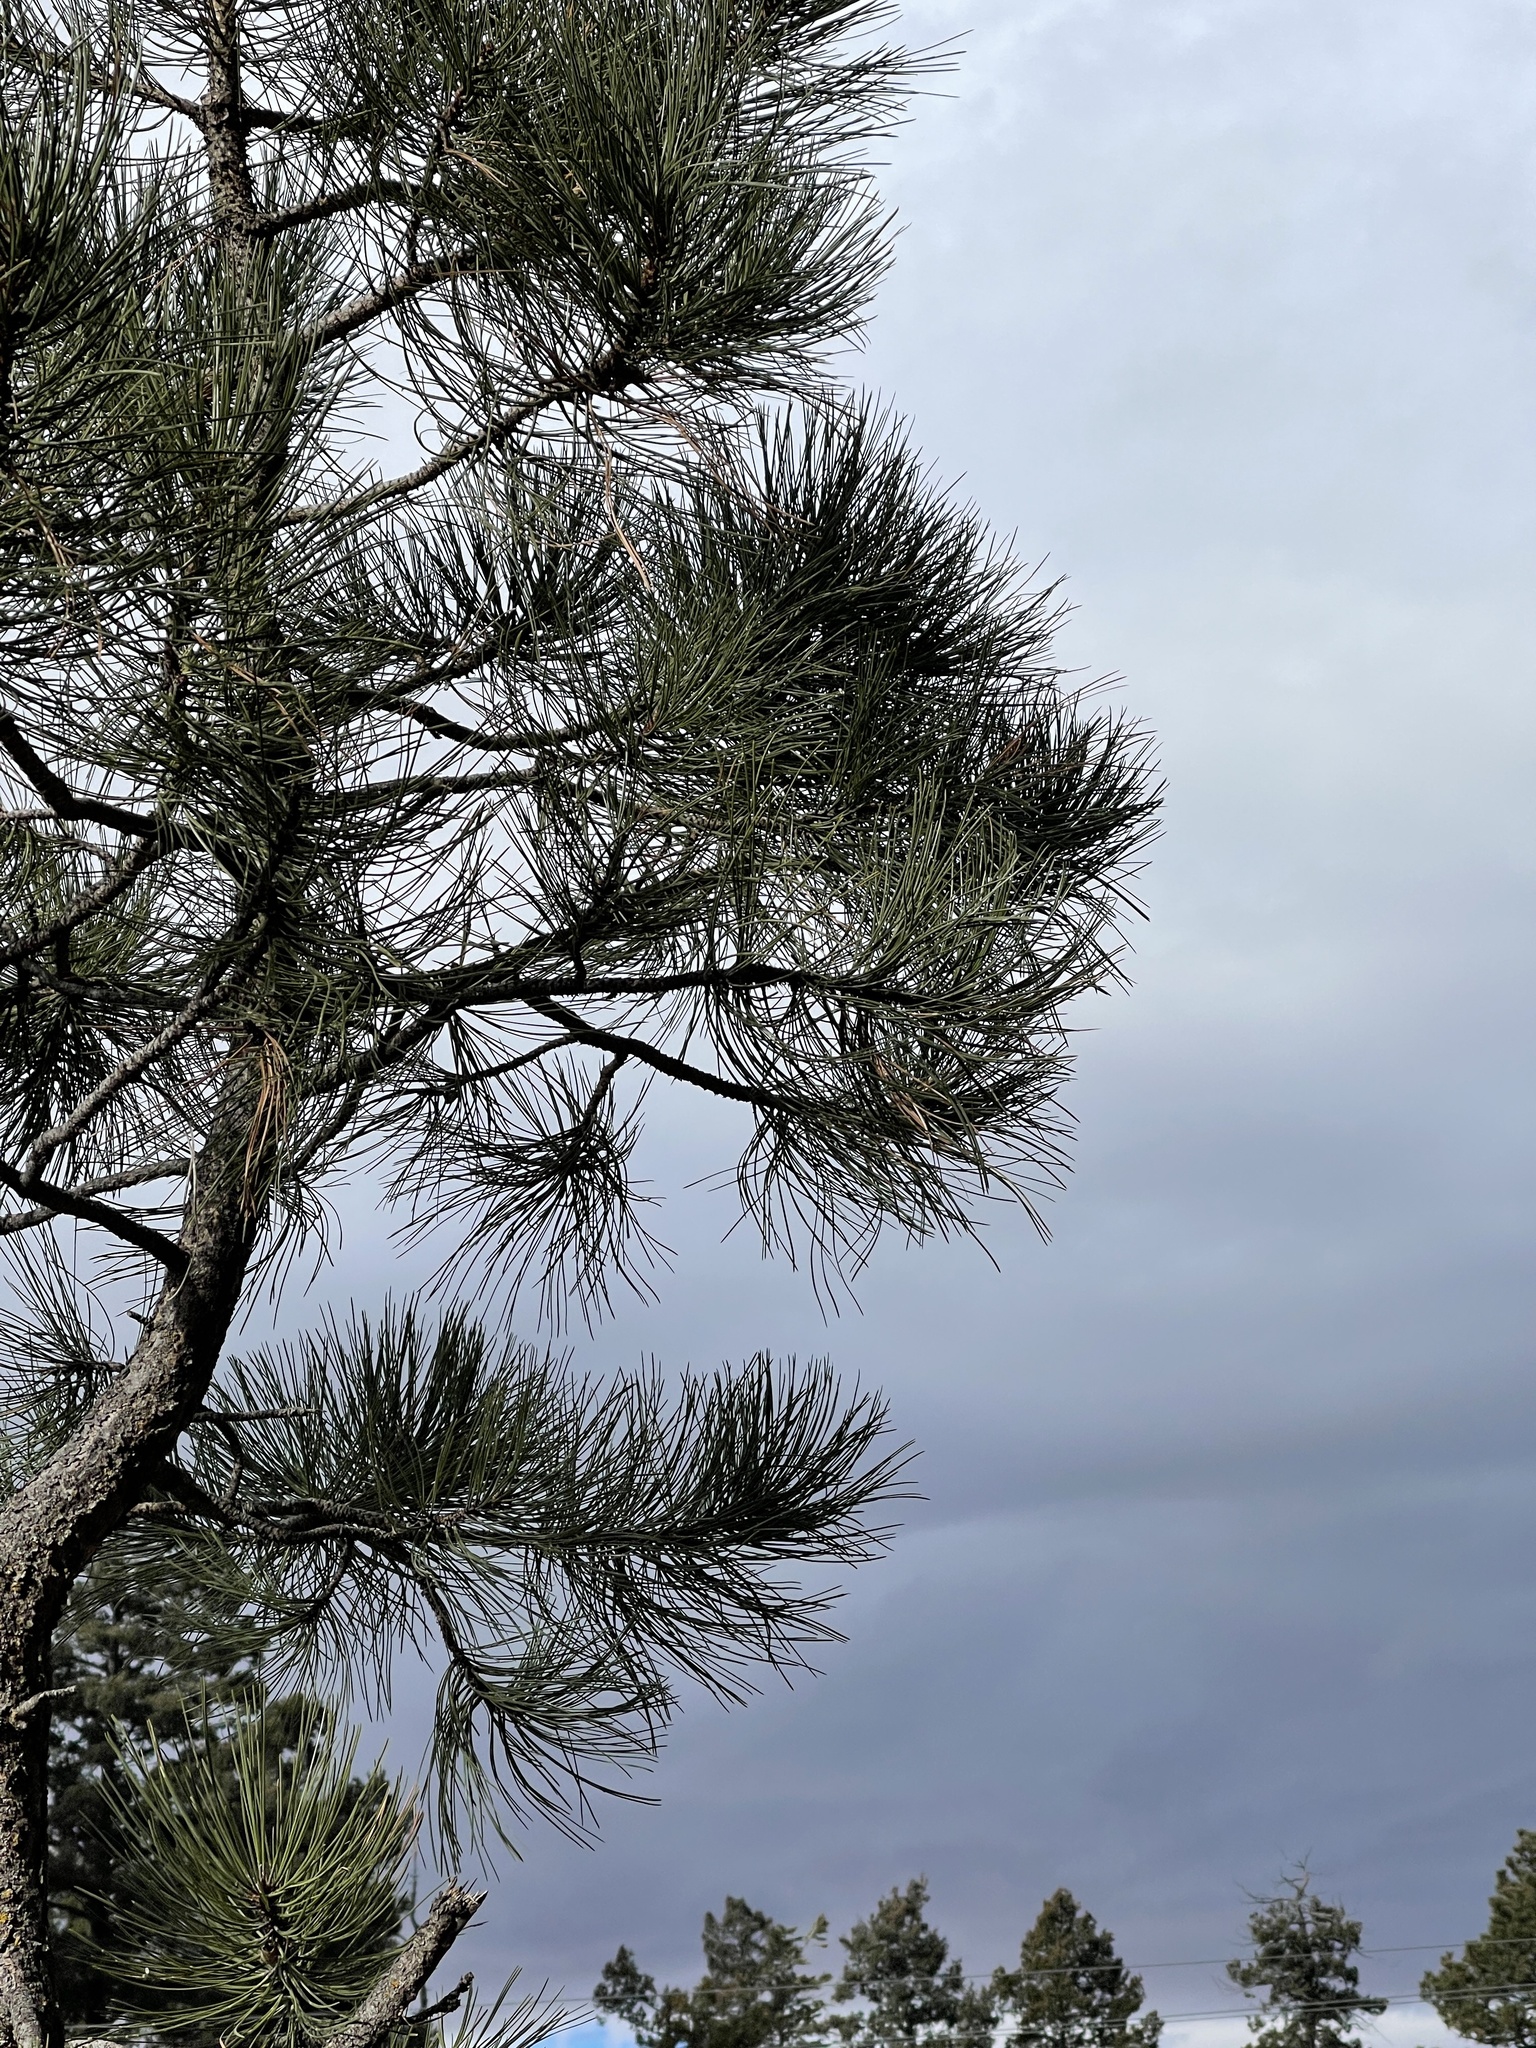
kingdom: Plantae
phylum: Tracheophyta
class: Pinopsida
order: Pinales
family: Pinaceae
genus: Pinus
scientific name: Pinus ponderosa
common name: Western yellow-pine
